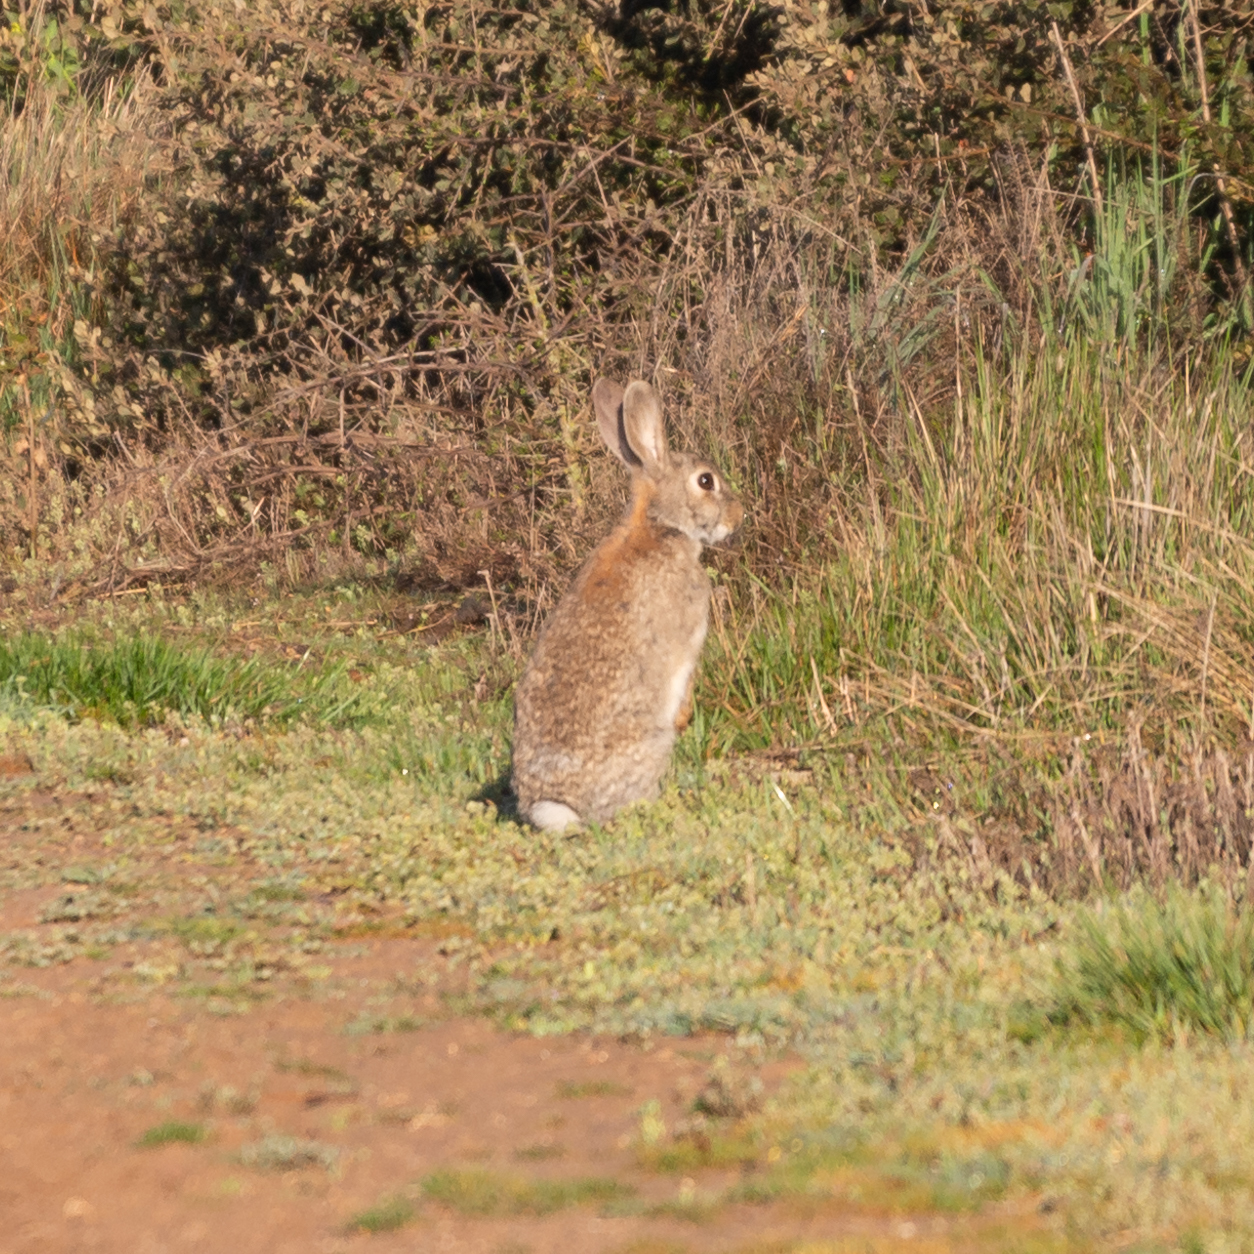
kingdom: Animalia
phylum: Chordata
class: Mammalia
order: Lagomorpha
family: Leporidae
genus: Oryctolagus
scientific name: Oryctolagus cuniculus
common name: European rabbit
